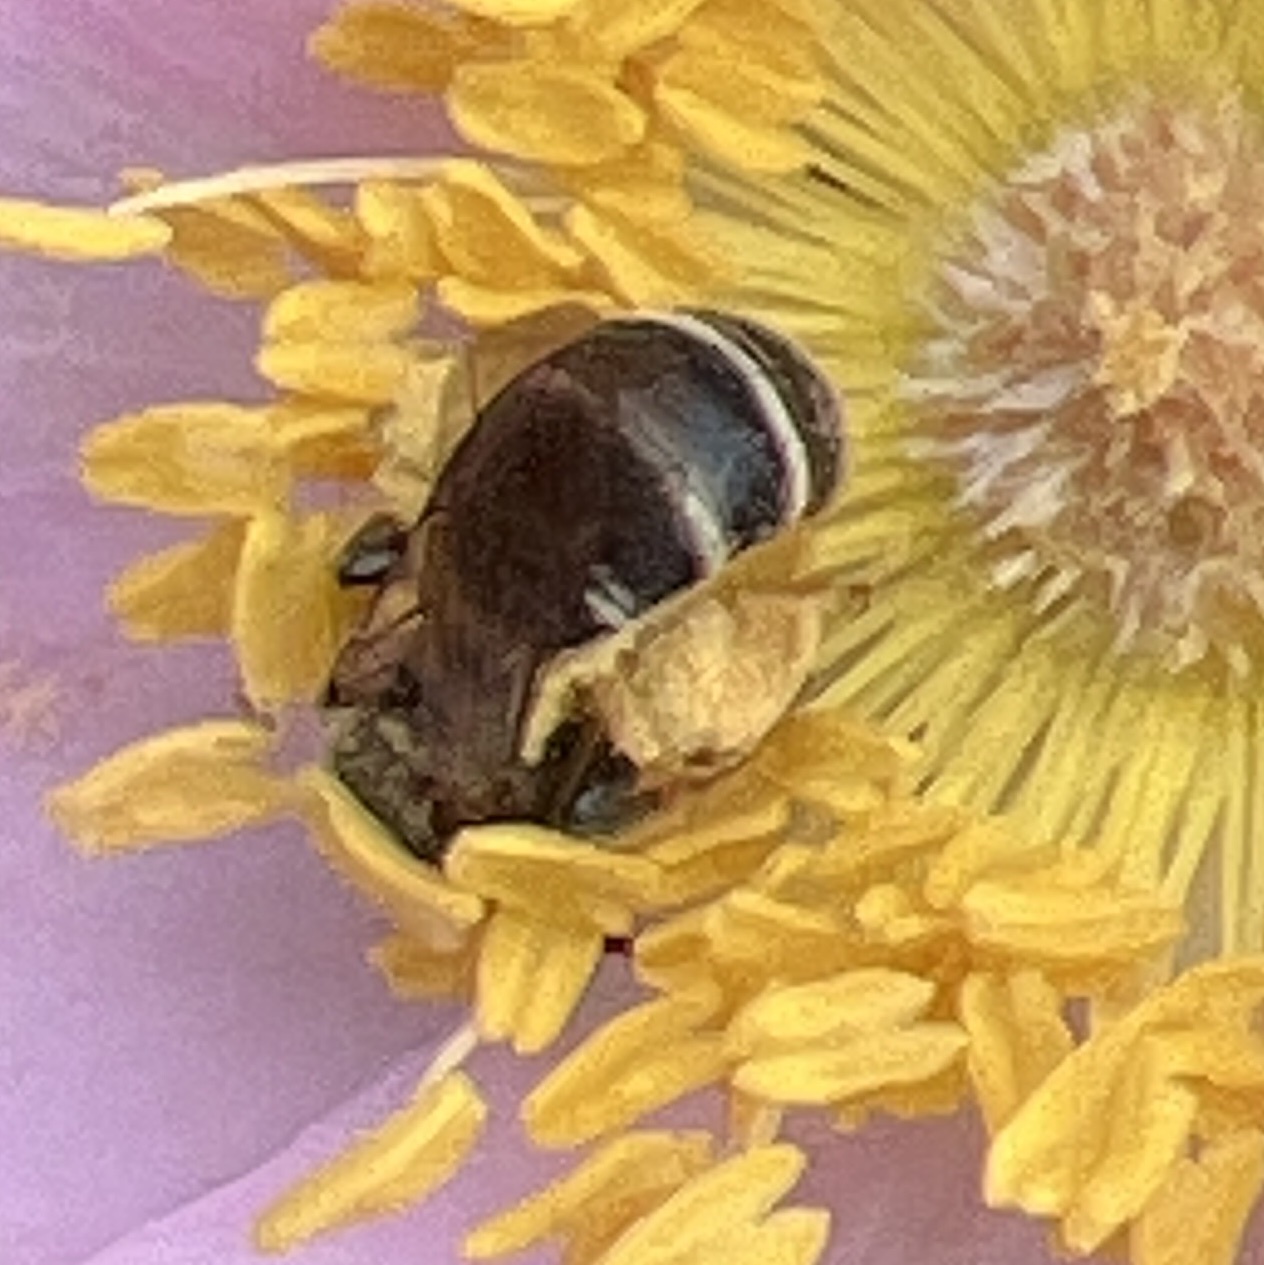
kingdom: Animalia
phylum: Arthropoda
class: Insecta
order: Hymenoptera
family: Halictidae
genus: Halictus
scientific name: Halictus rubicundus
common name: Orange-legged furrow bee
